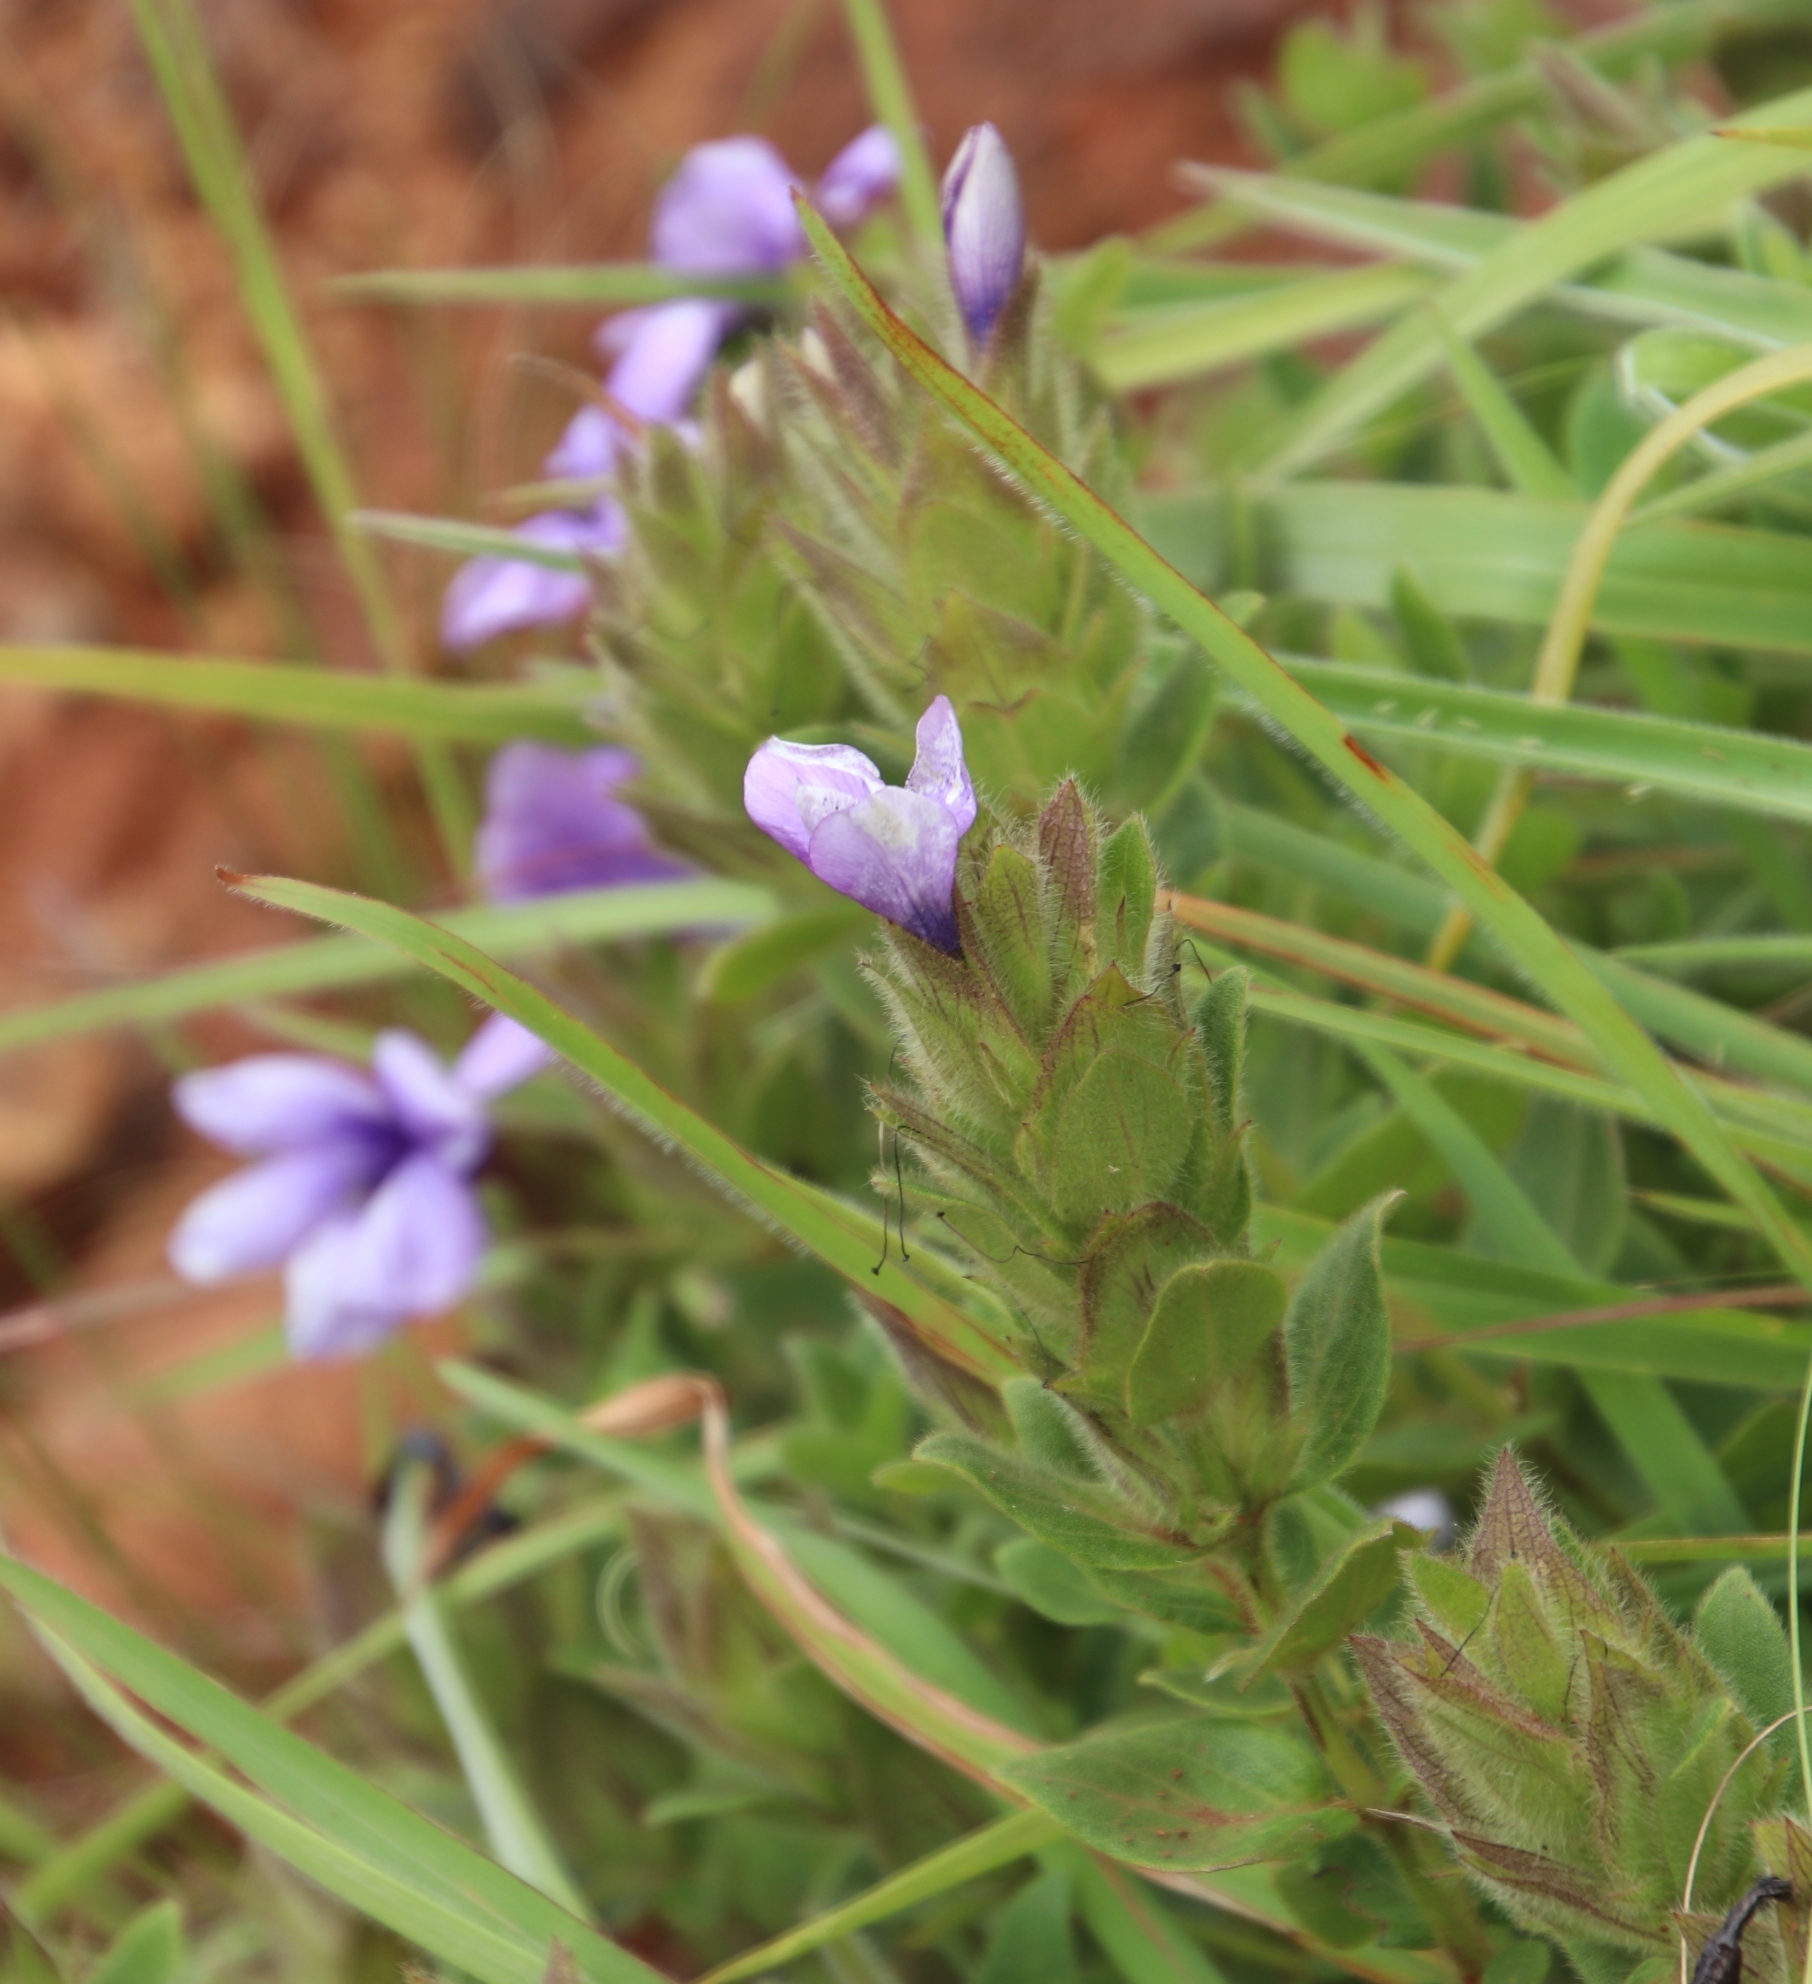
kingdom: Plantae
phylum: Tracheophyta
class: Magnoliopsida
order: Lamiales
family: Acanthaceae
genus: Barleria
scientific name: Barleria ovata
